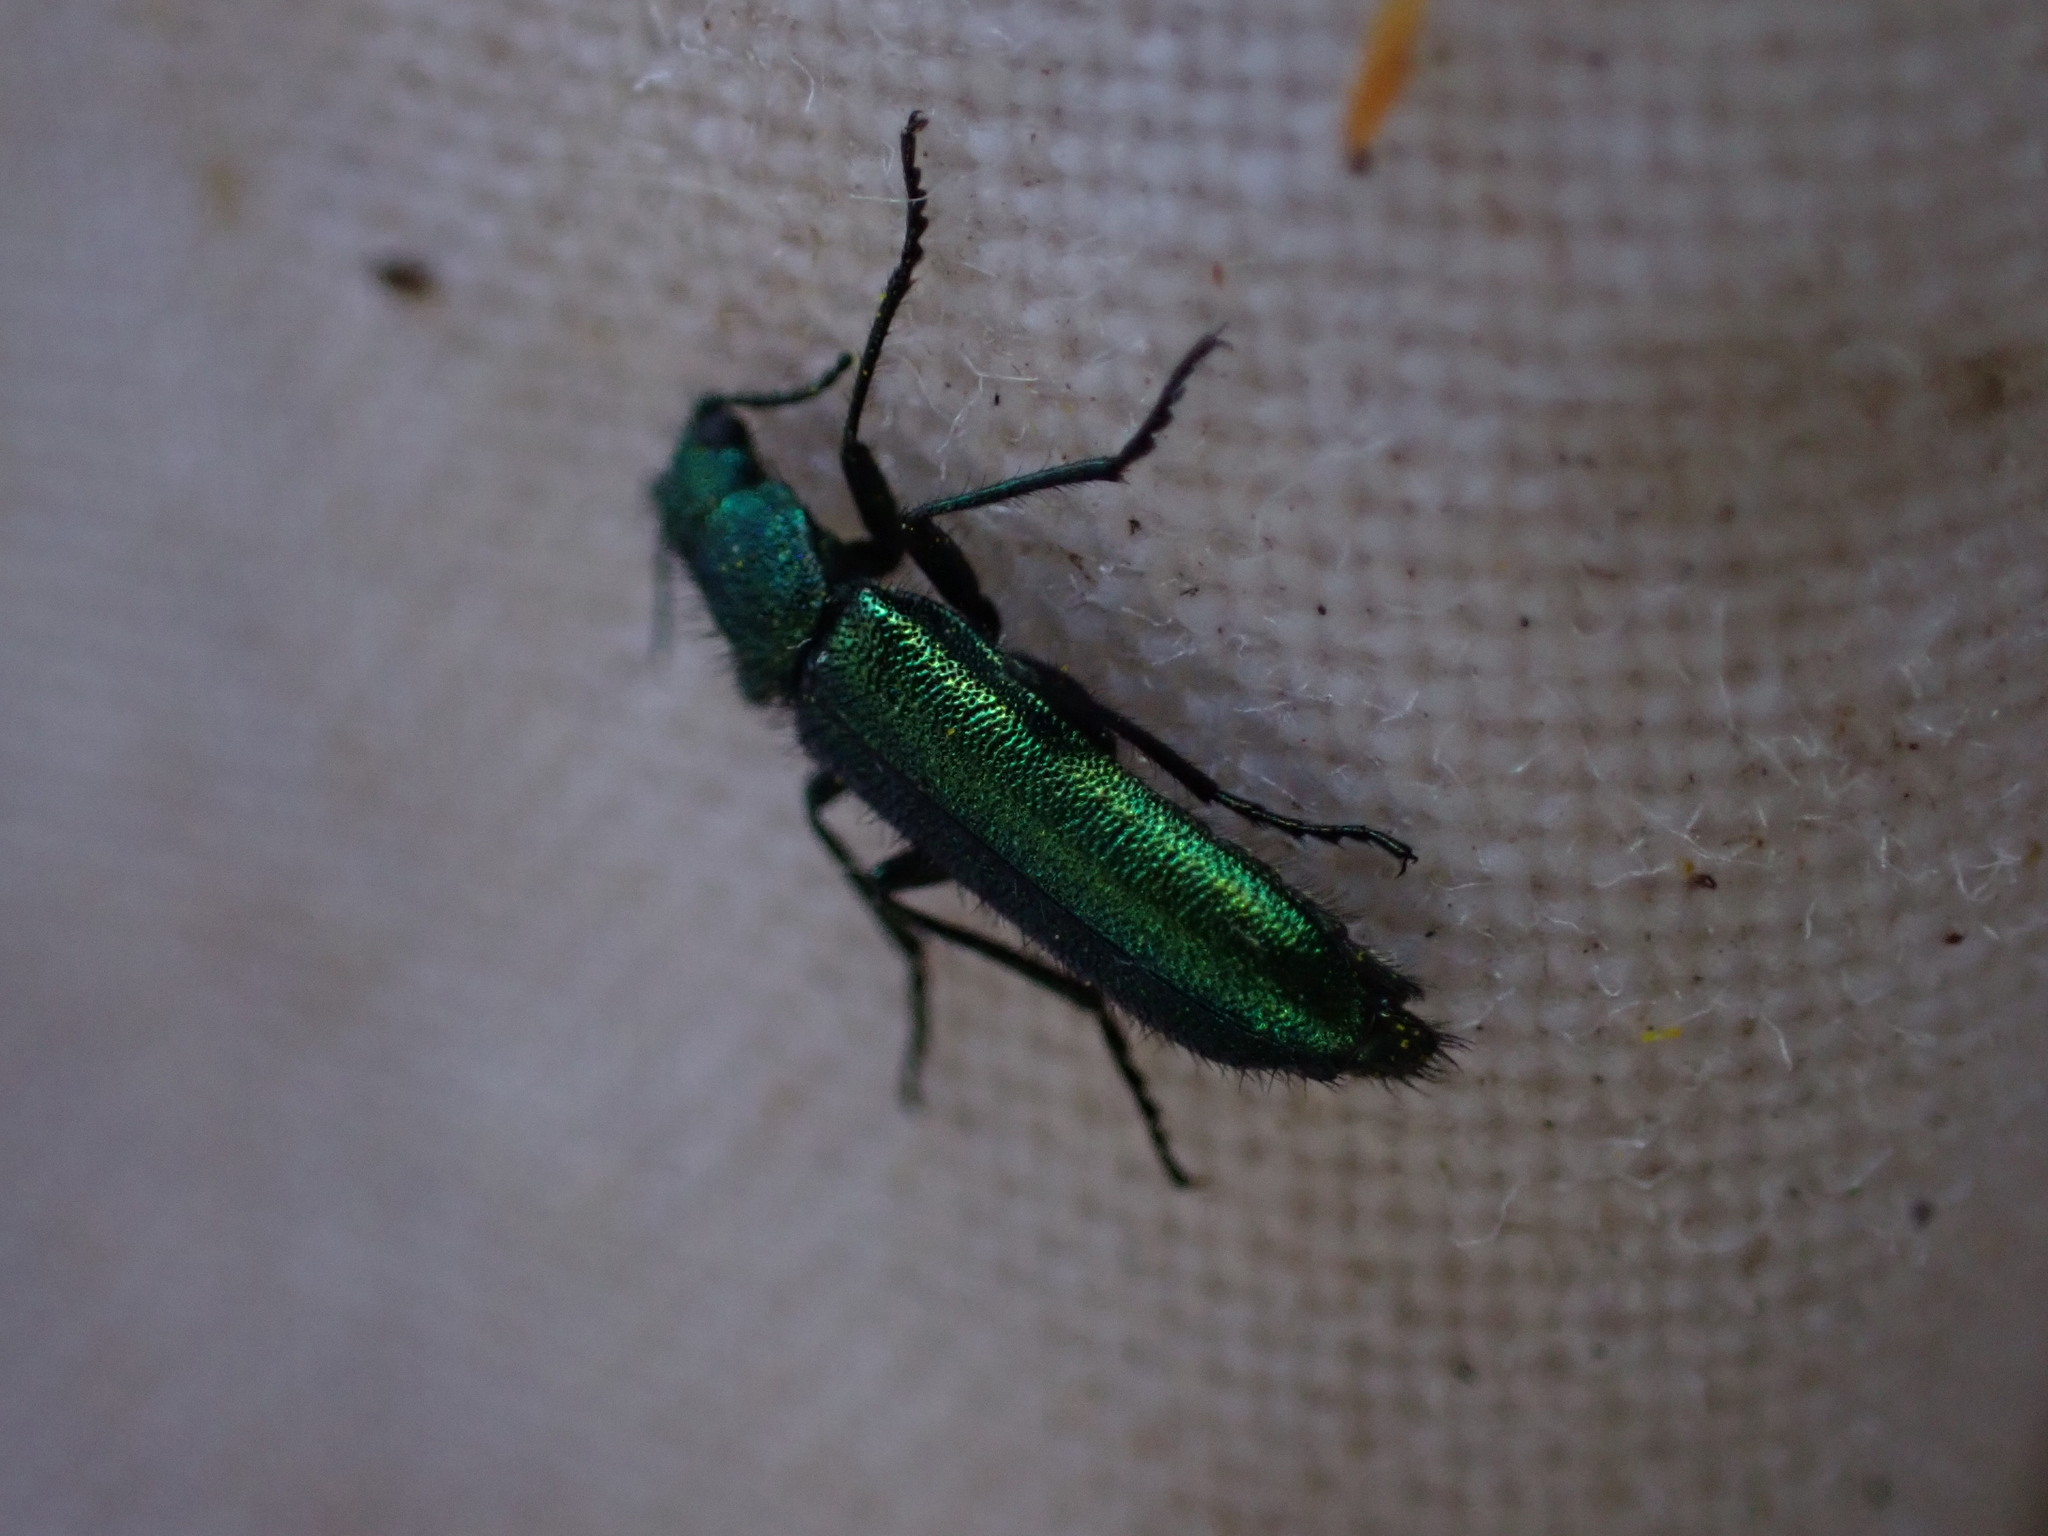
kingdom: Animalia
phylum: Arthropoda
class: Insecta
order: Coleoptera
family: Dasytidae
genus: Psilothrix
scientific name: Psilothrix viridicoerulea
